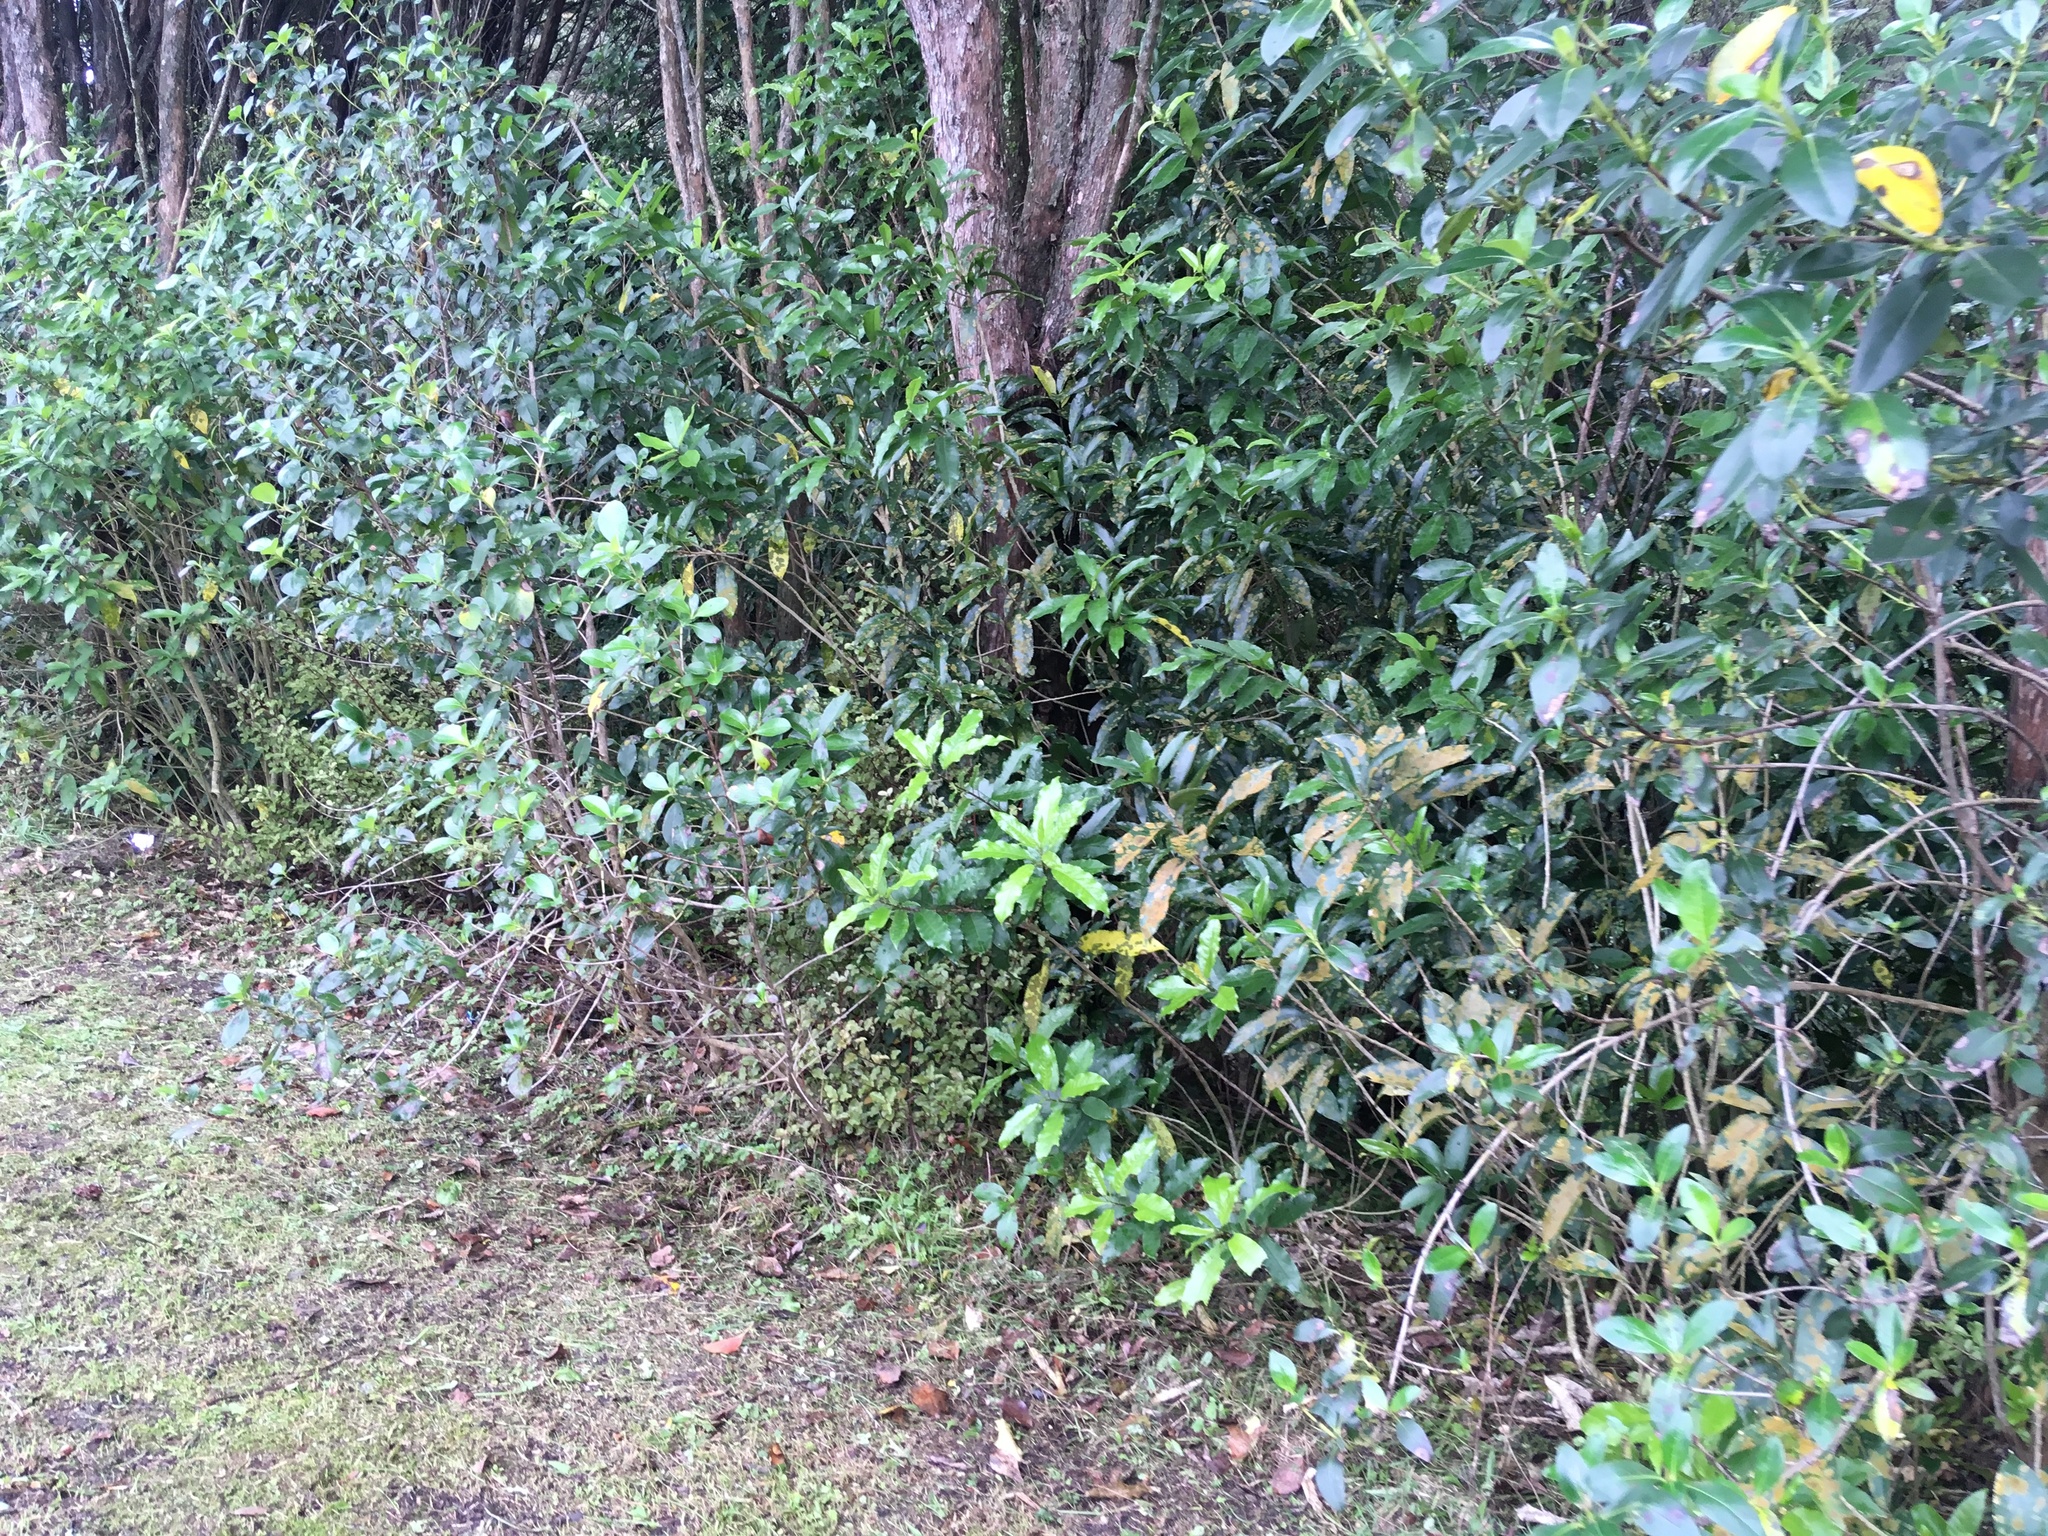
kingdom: Plantae
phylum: Tracheophyta
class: Magnoliopsida
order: Malpighiales
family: Violaceae
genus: Melicytus
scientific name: Melicytus ramiflorus
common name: Mahoe
